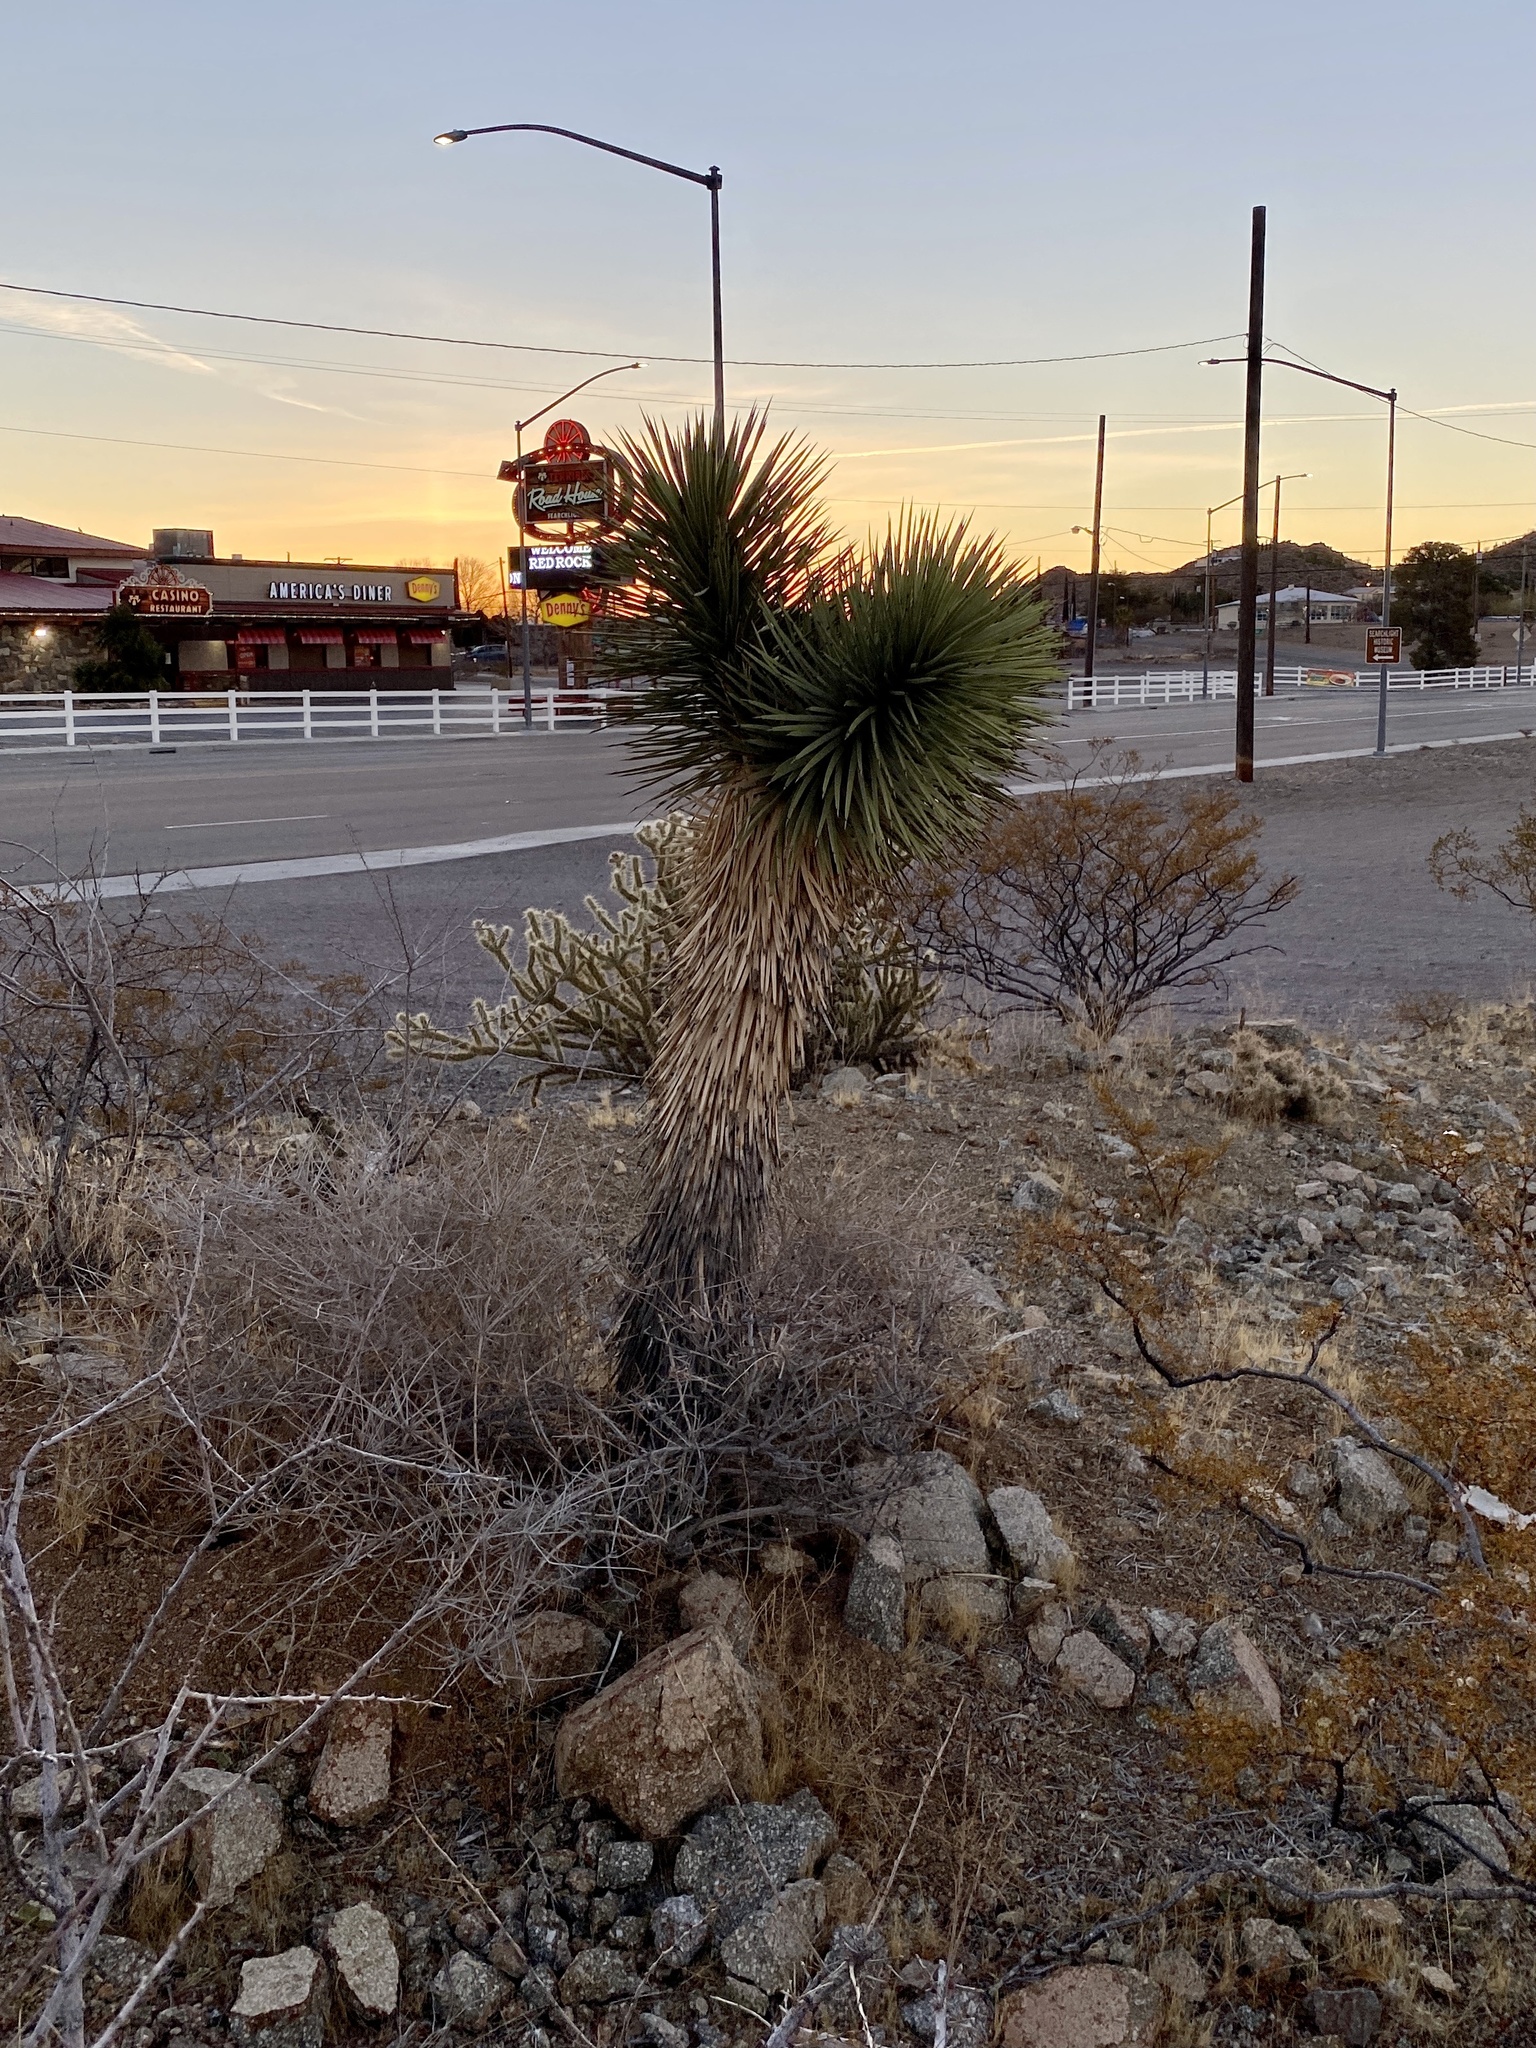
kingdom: Plantae
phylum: Tracheophyta
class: Liliopsida
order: Asparagales
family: Asparagaceae
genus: Yucca
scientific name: Yucca brevifolia
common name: Joshua tree
